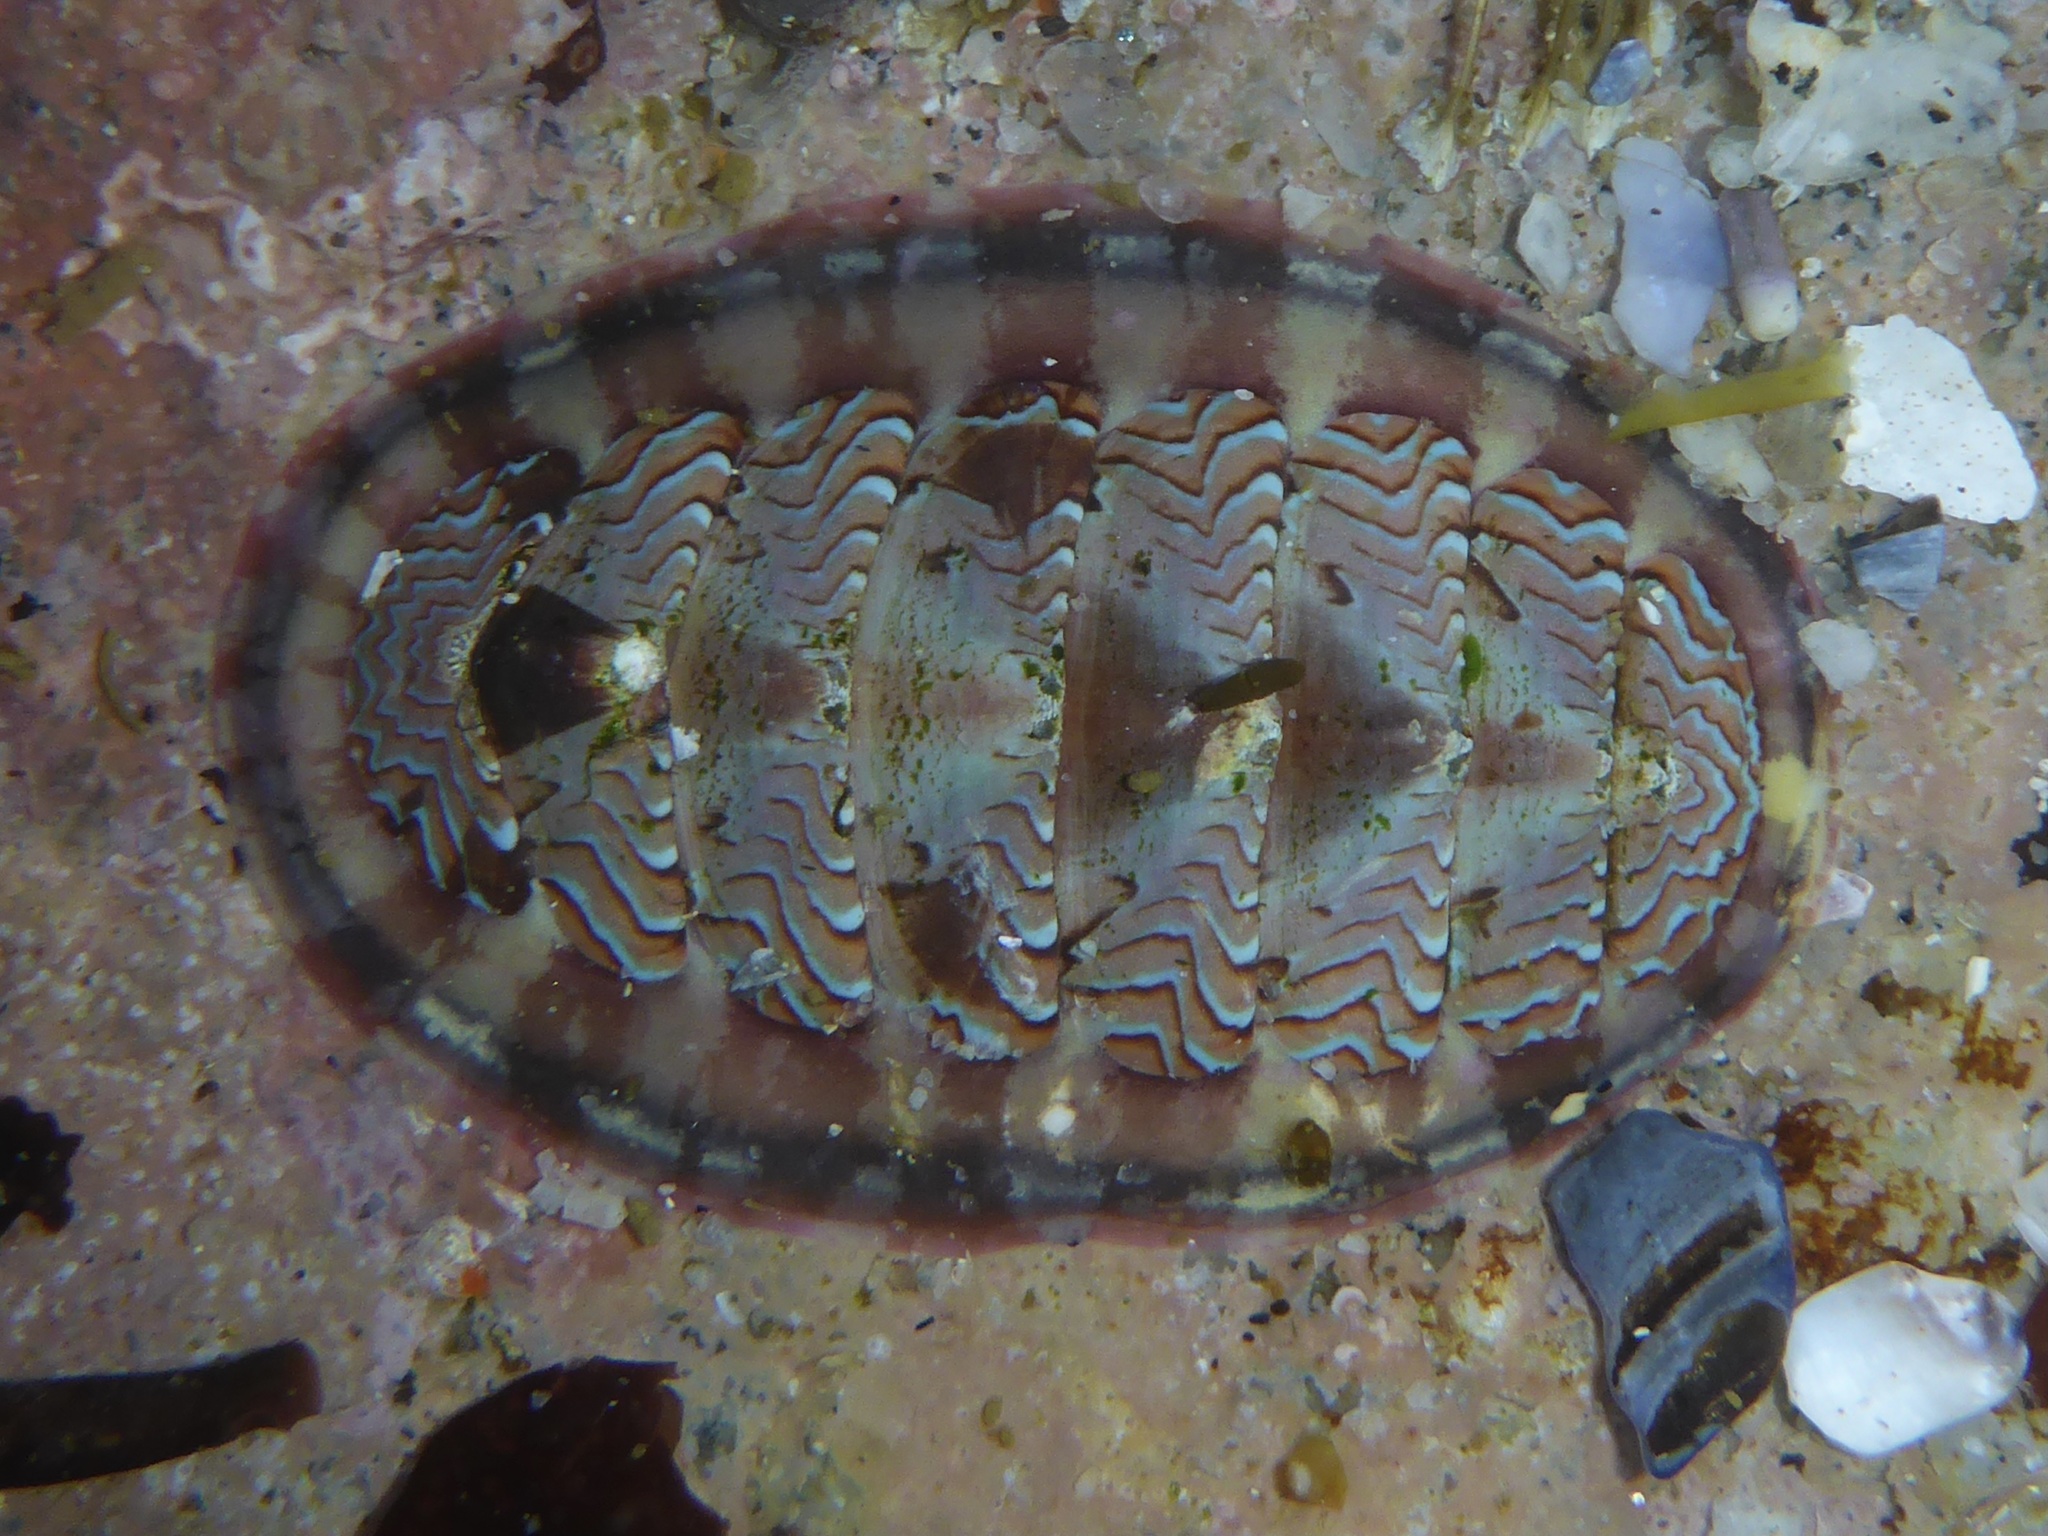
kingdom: Animalia
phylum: Mollusca
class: Polyplacophora
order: Chitonida
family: Tonicellidae
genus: Tonicella
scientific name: Tonicella lokii
